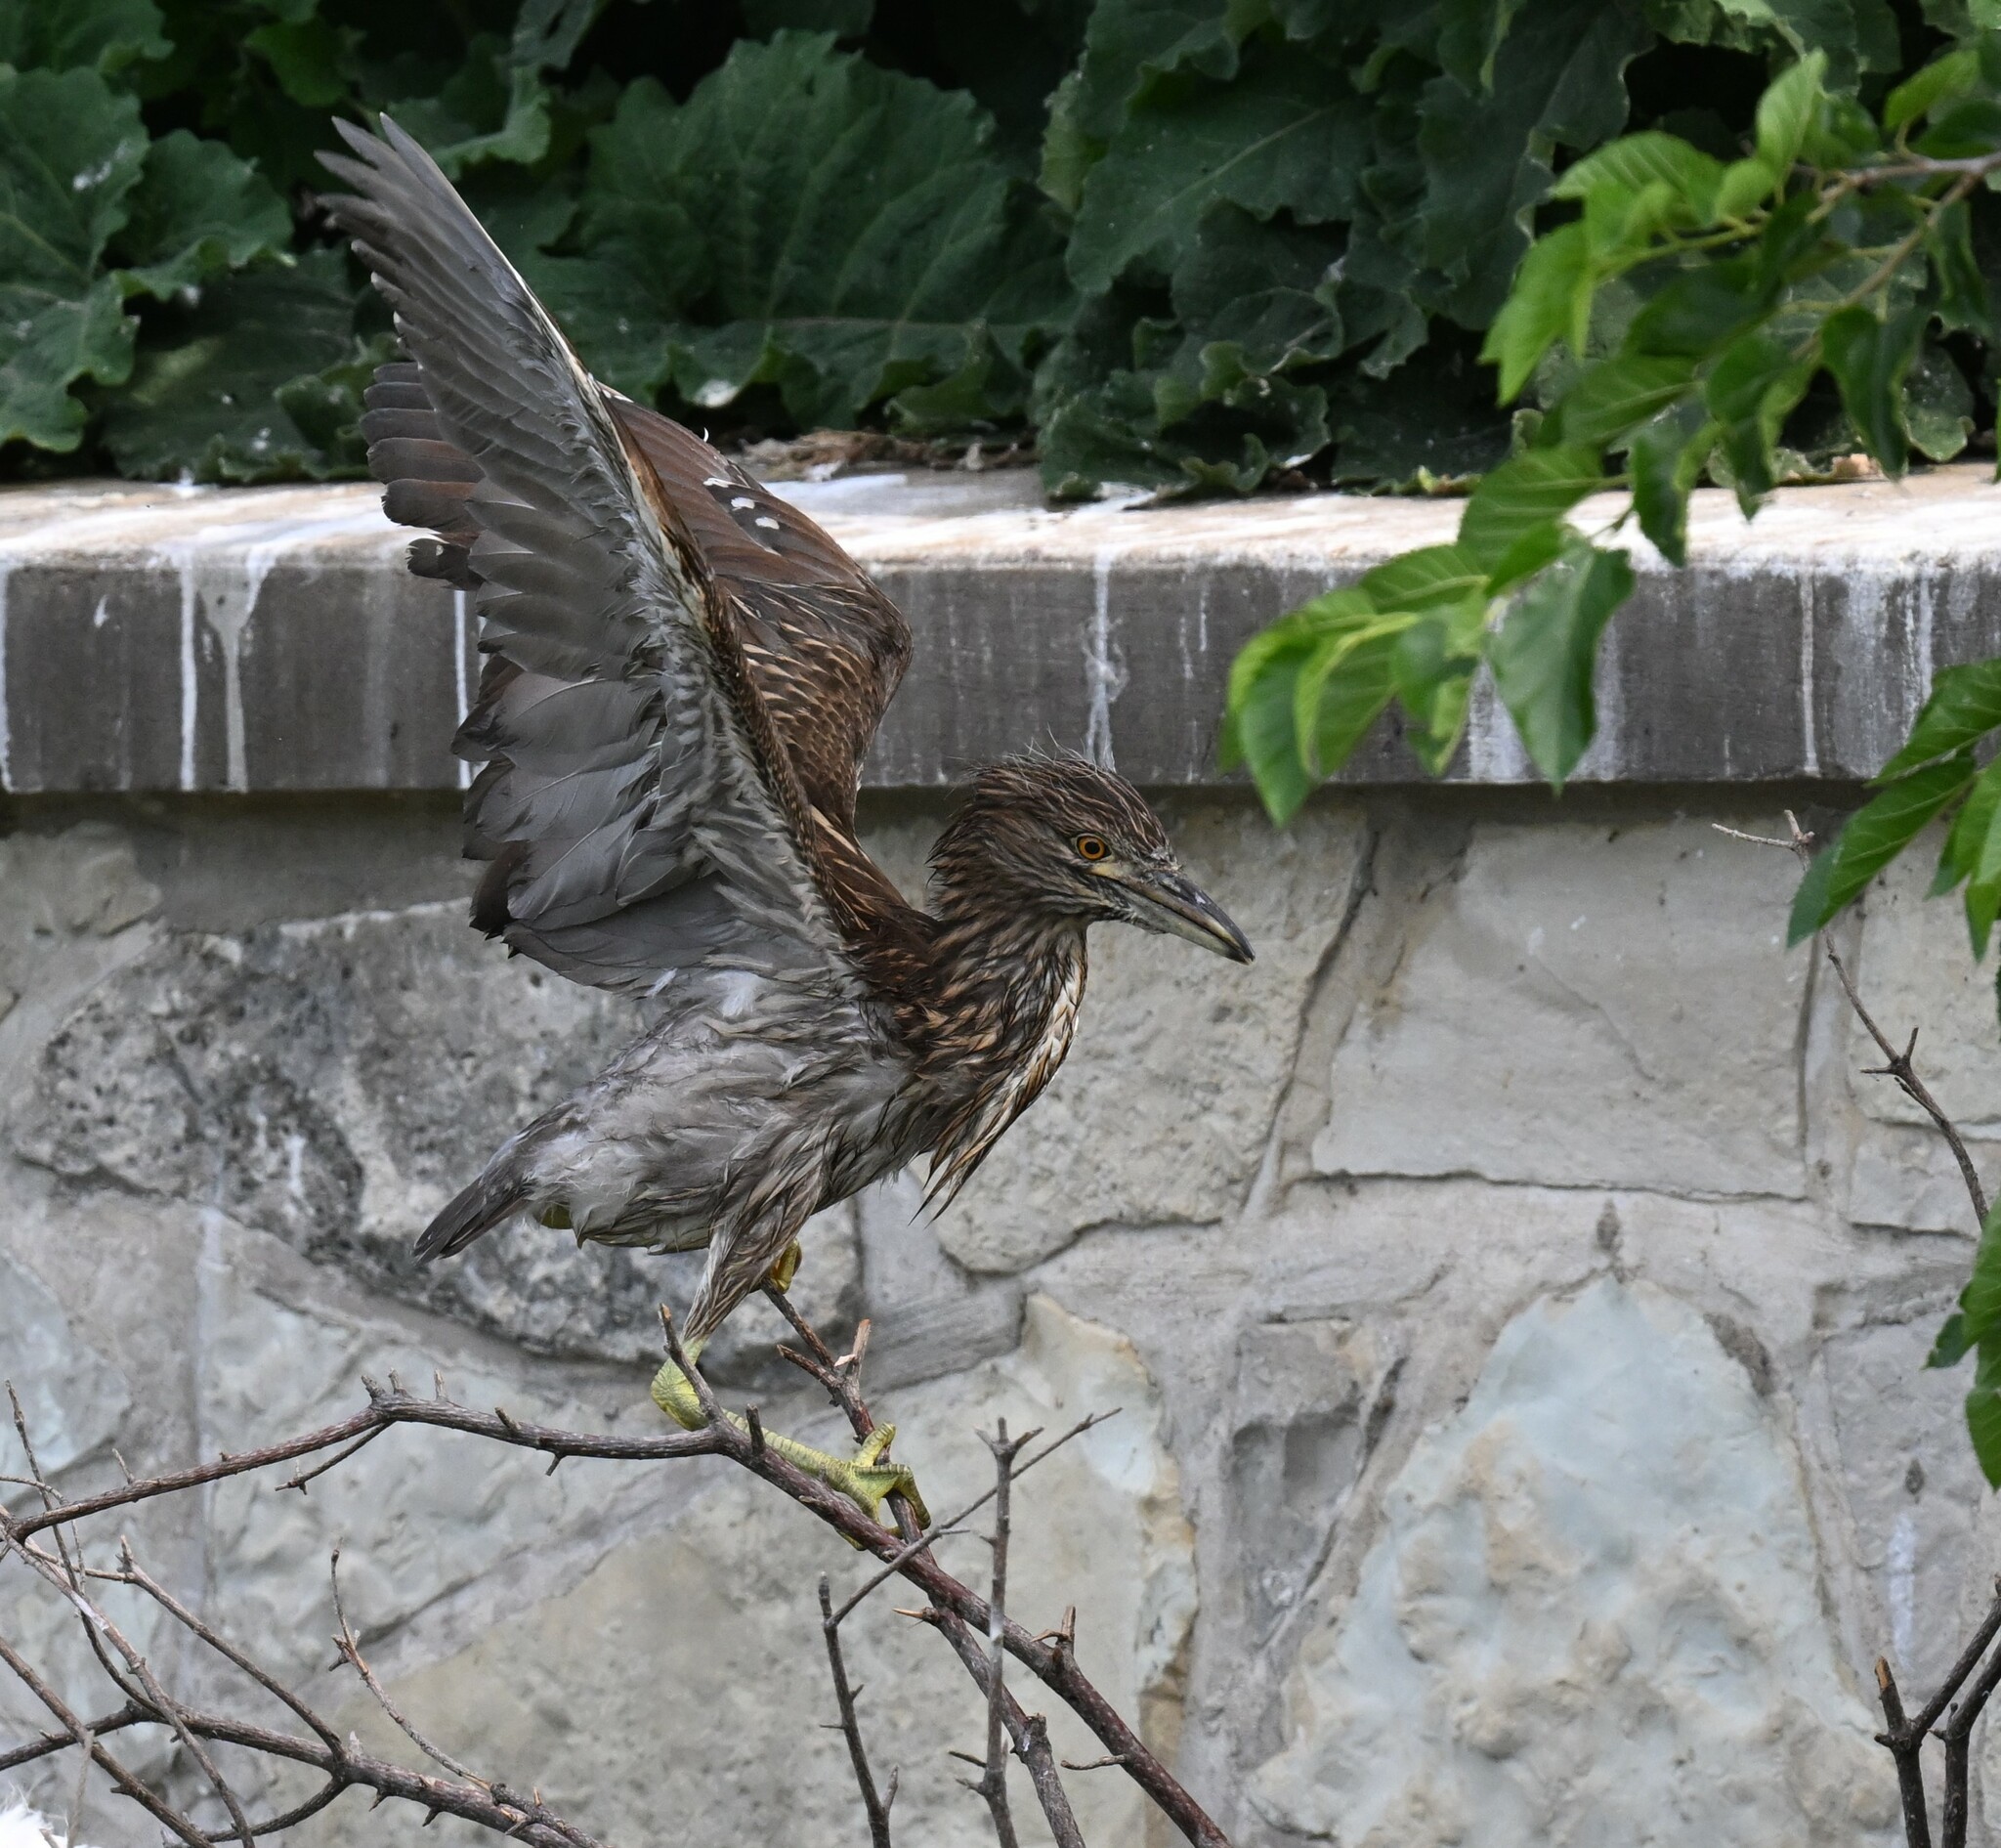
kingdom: Animalia
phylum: Chordata
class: Aves
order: Pelecaniformes
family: Ardeidae
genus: Nycticorax
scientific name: Nycticorax nycticorax
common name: Black-crowned night heron
